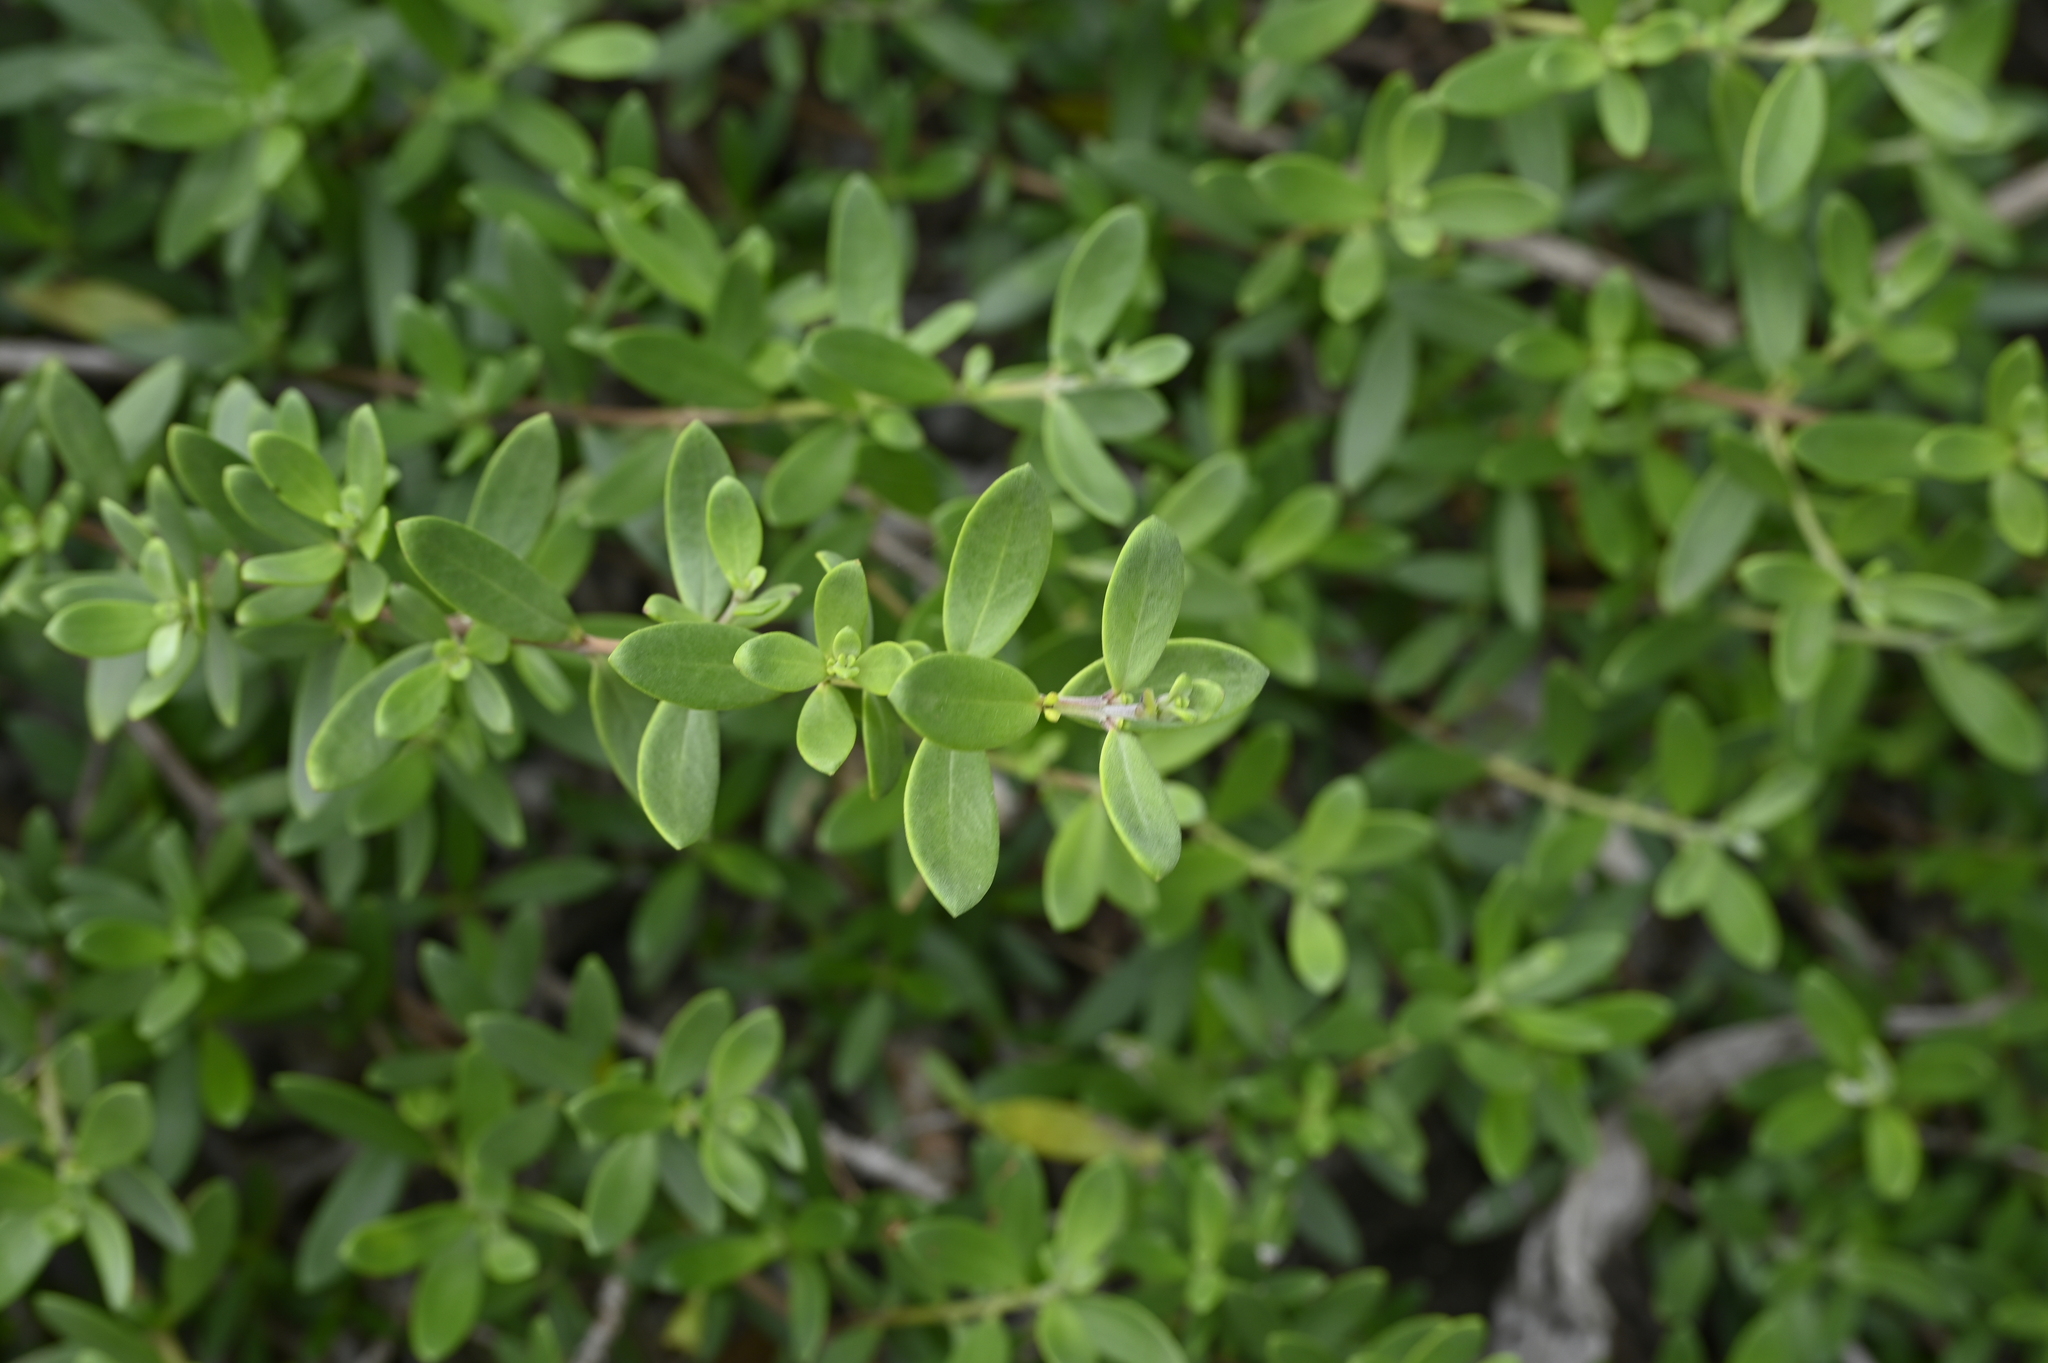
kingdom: Plantae
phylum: Tracheophyta
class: Magnoliopsida
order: Myrtales
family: Lythraceae
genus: Pemphis
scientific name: Pemphis acidula
